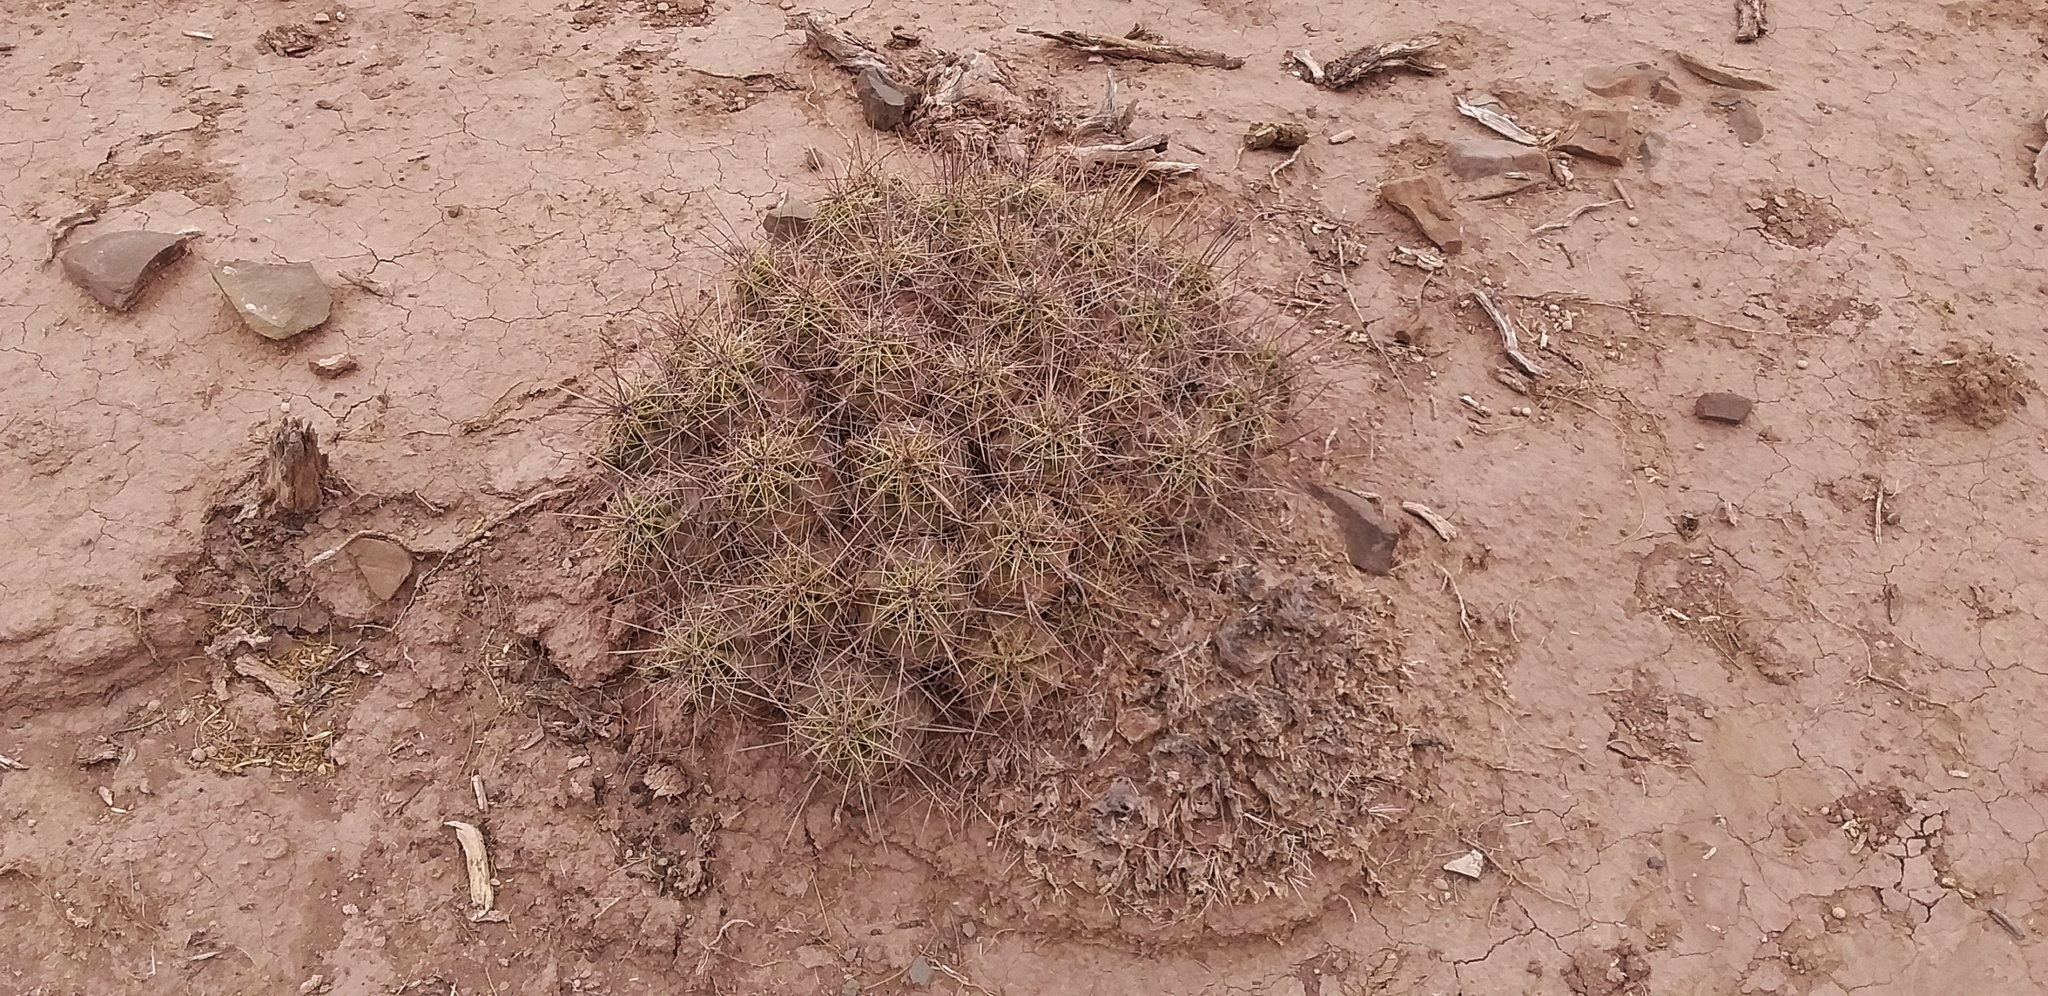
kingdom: Plantae
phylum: Tracheophyta
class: Magnoliopsida
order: Caryophyllales
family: Cactaceae
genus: Echinocereus
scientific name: Echinocereus enneacanthus
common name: Pitaya
